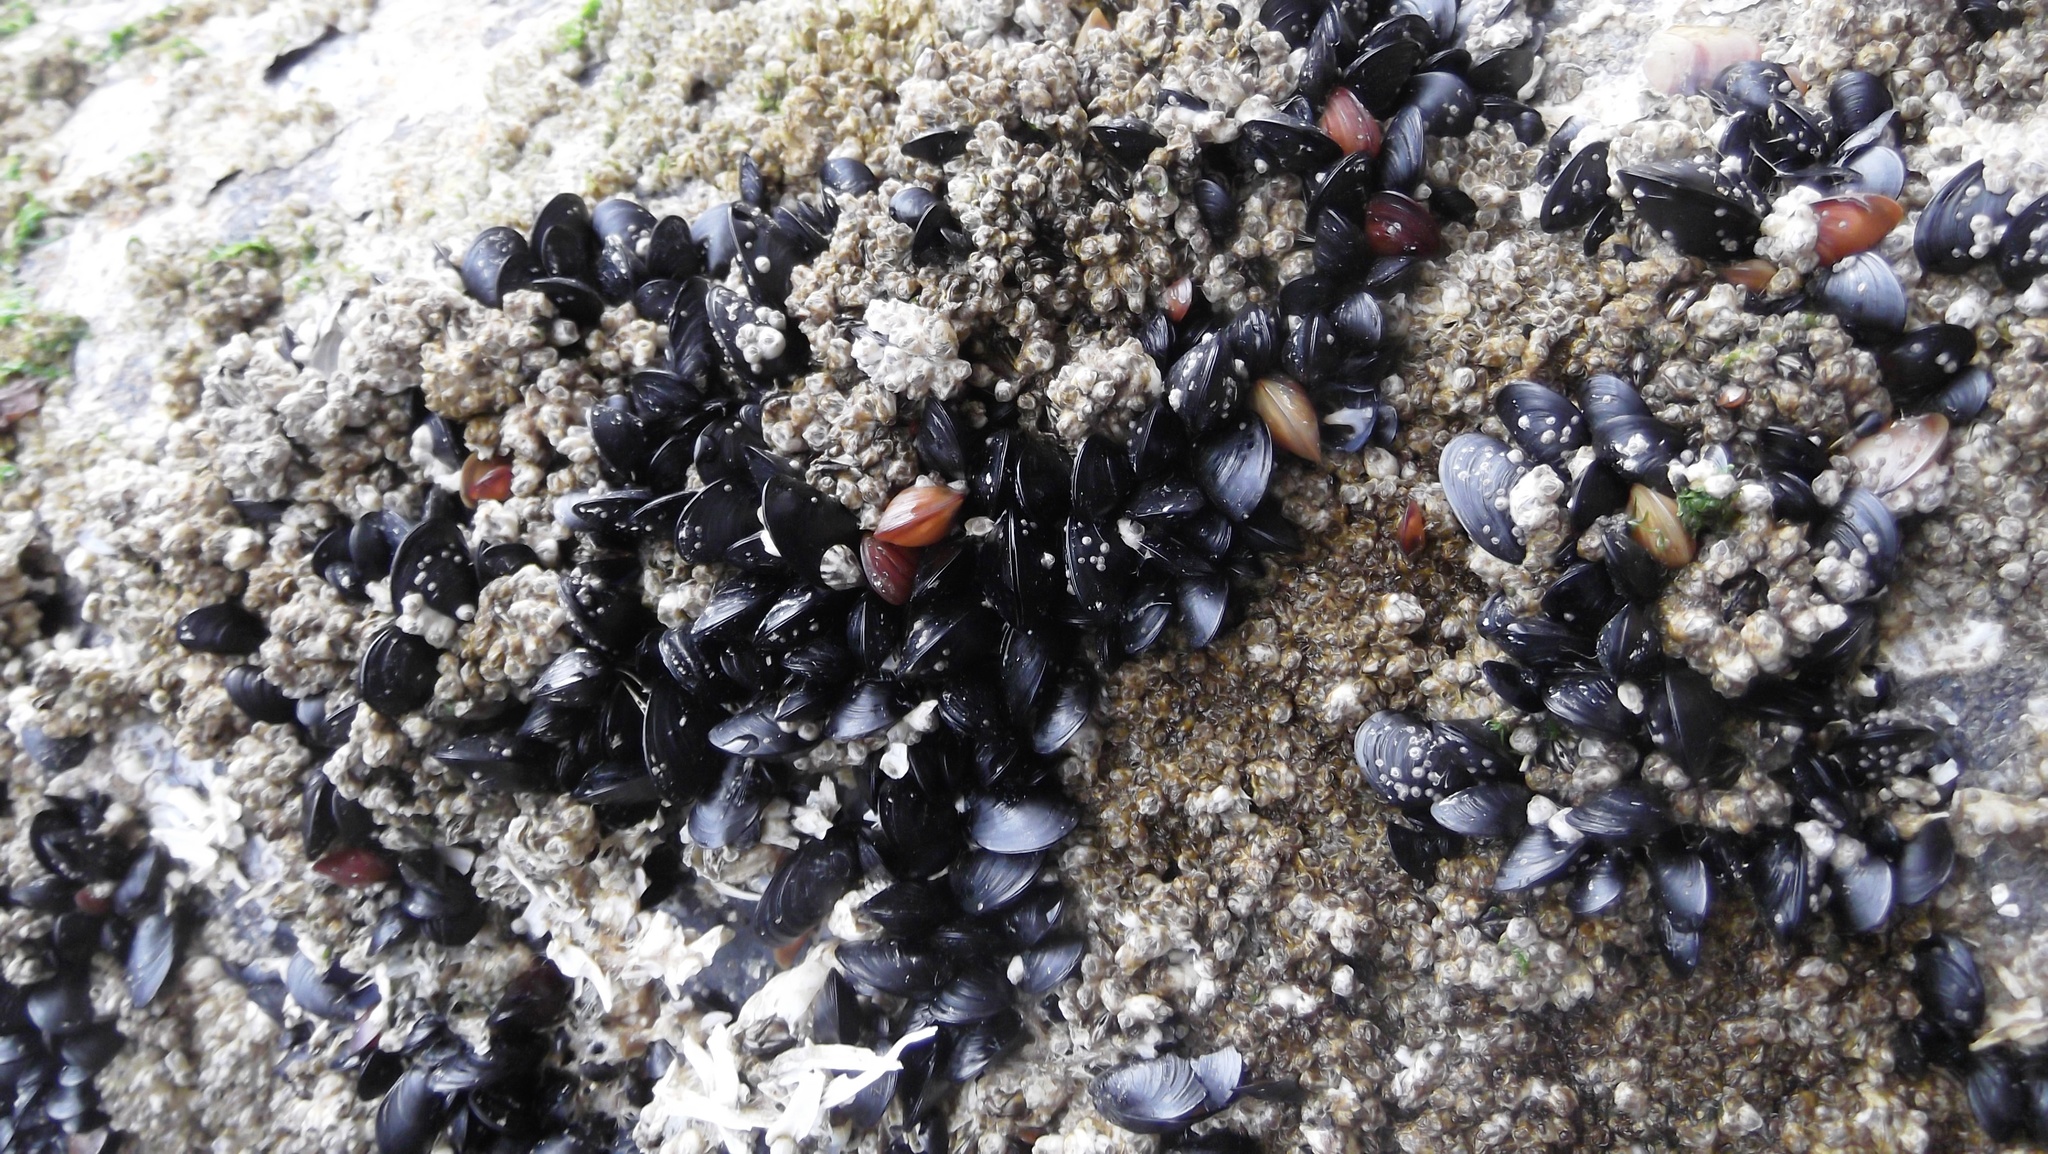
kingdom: Animalia
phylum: Mollusca
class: Bivalvia
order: Mytilida
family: Mytilidae
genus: Mytilus
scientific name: Mytilus
